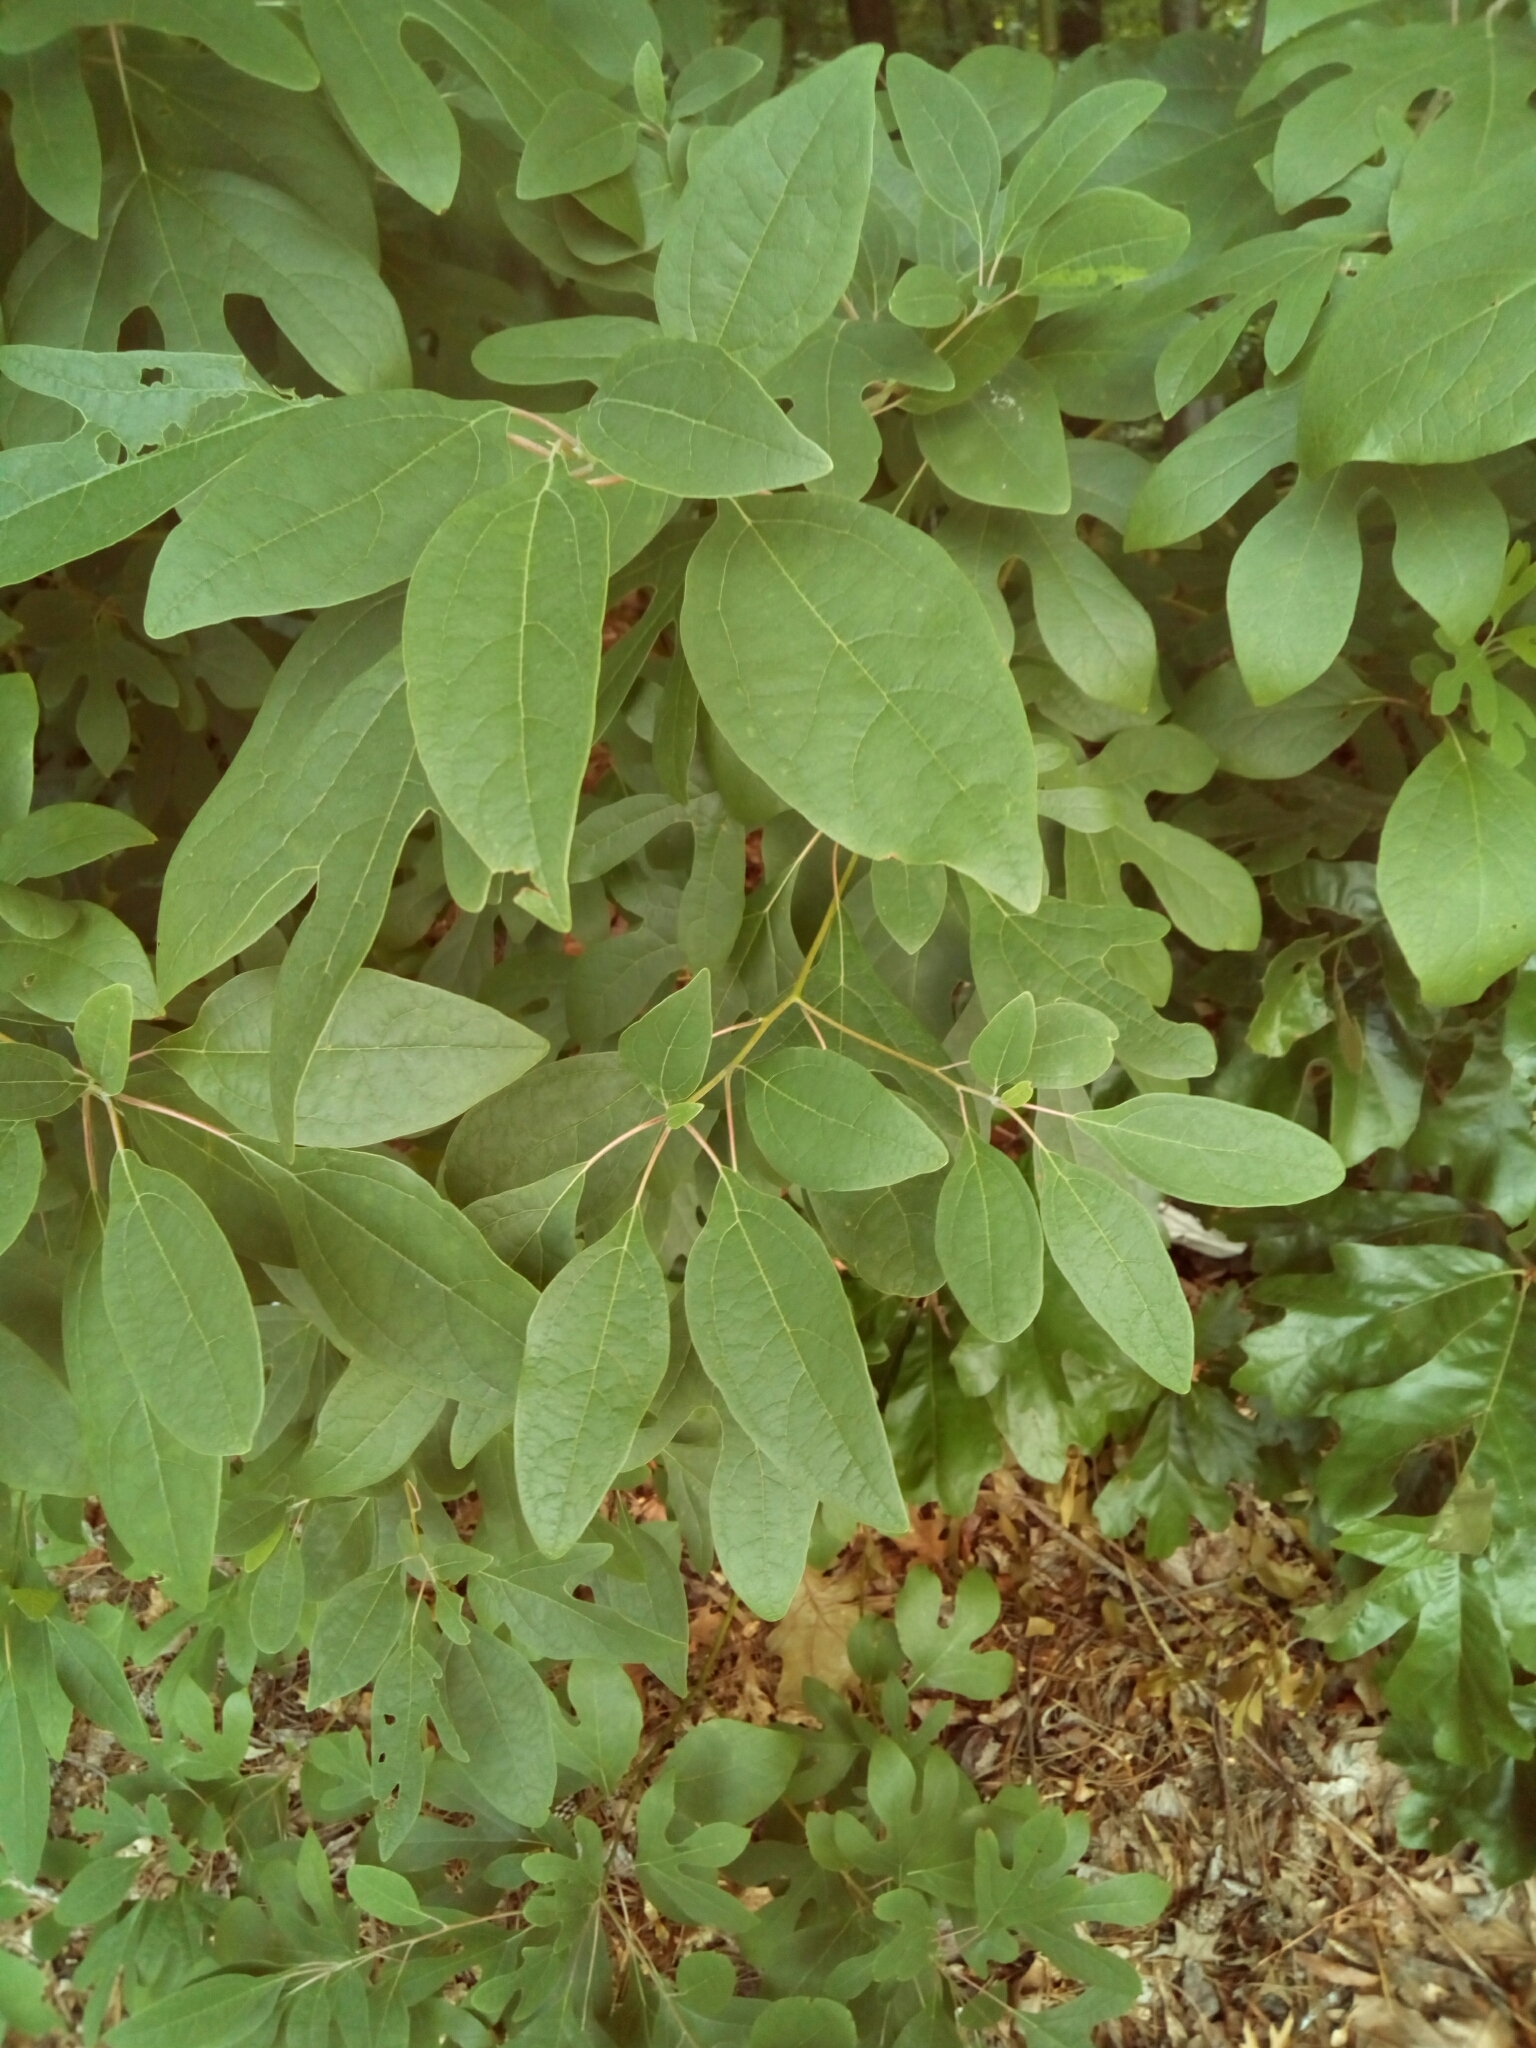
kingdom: Plantae
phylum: Tracheophyta
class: Magnoliopsida
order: Laurales
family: Lauraceae
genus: Sassafras
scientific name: Sassafras albidum
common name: Sassafras
